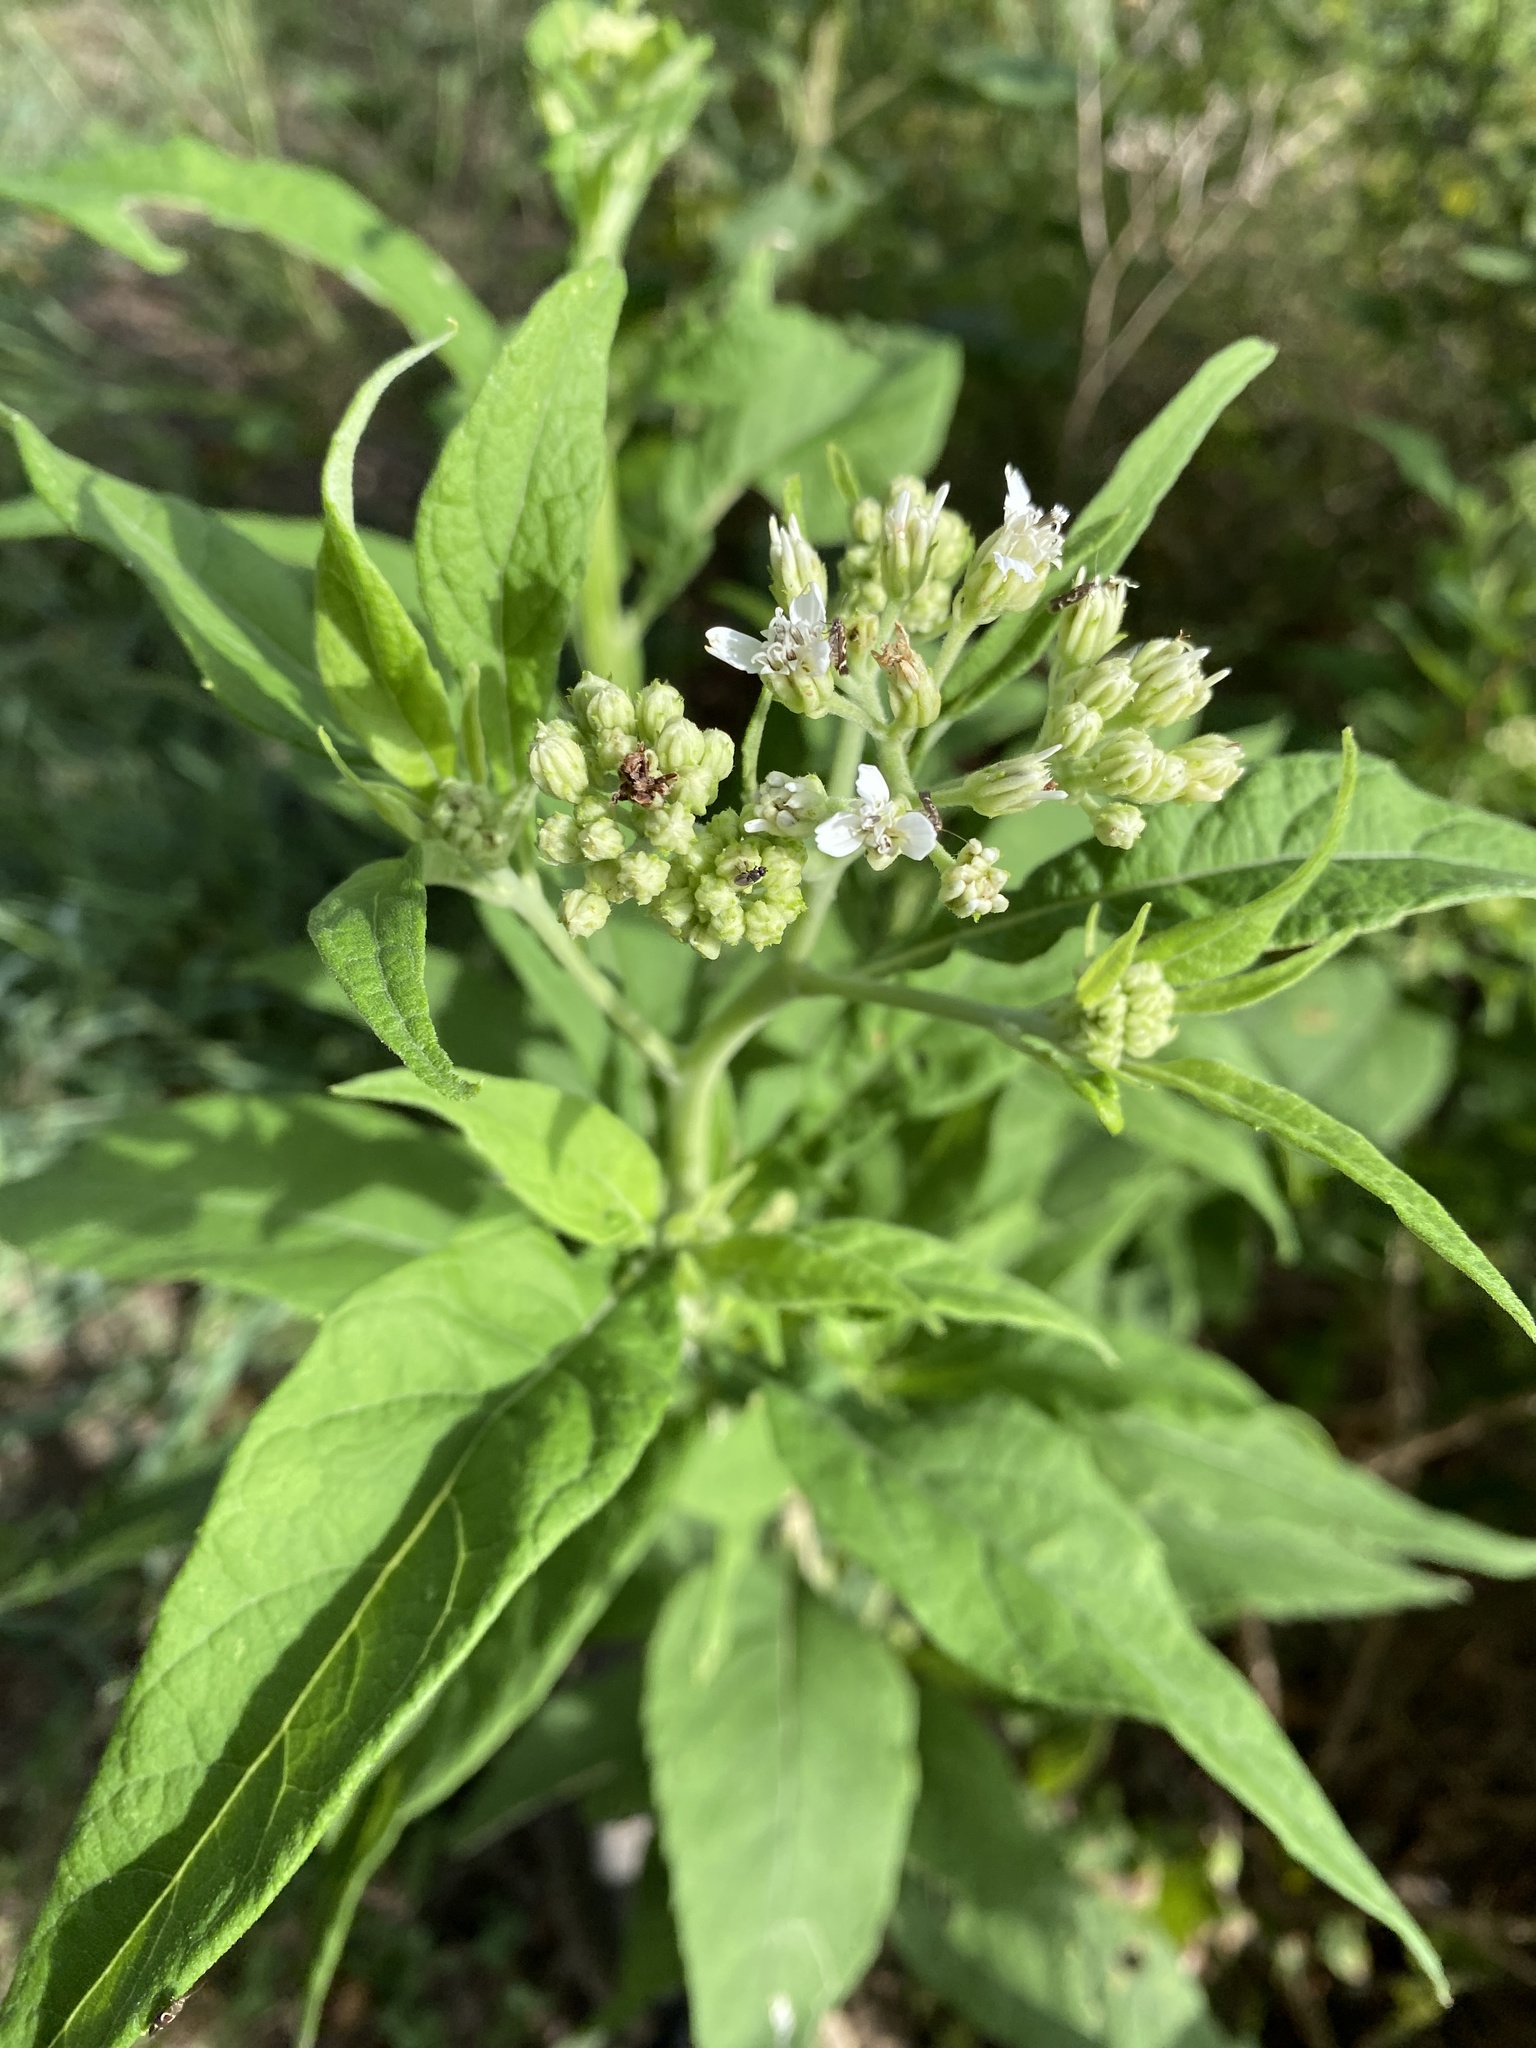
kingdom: Plantae
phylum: Tracheophyta
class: Magnoliopsida
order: Asterales
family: Asteraceae
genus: Verbesina
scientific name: Verbesina virginica
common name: Frostweed
